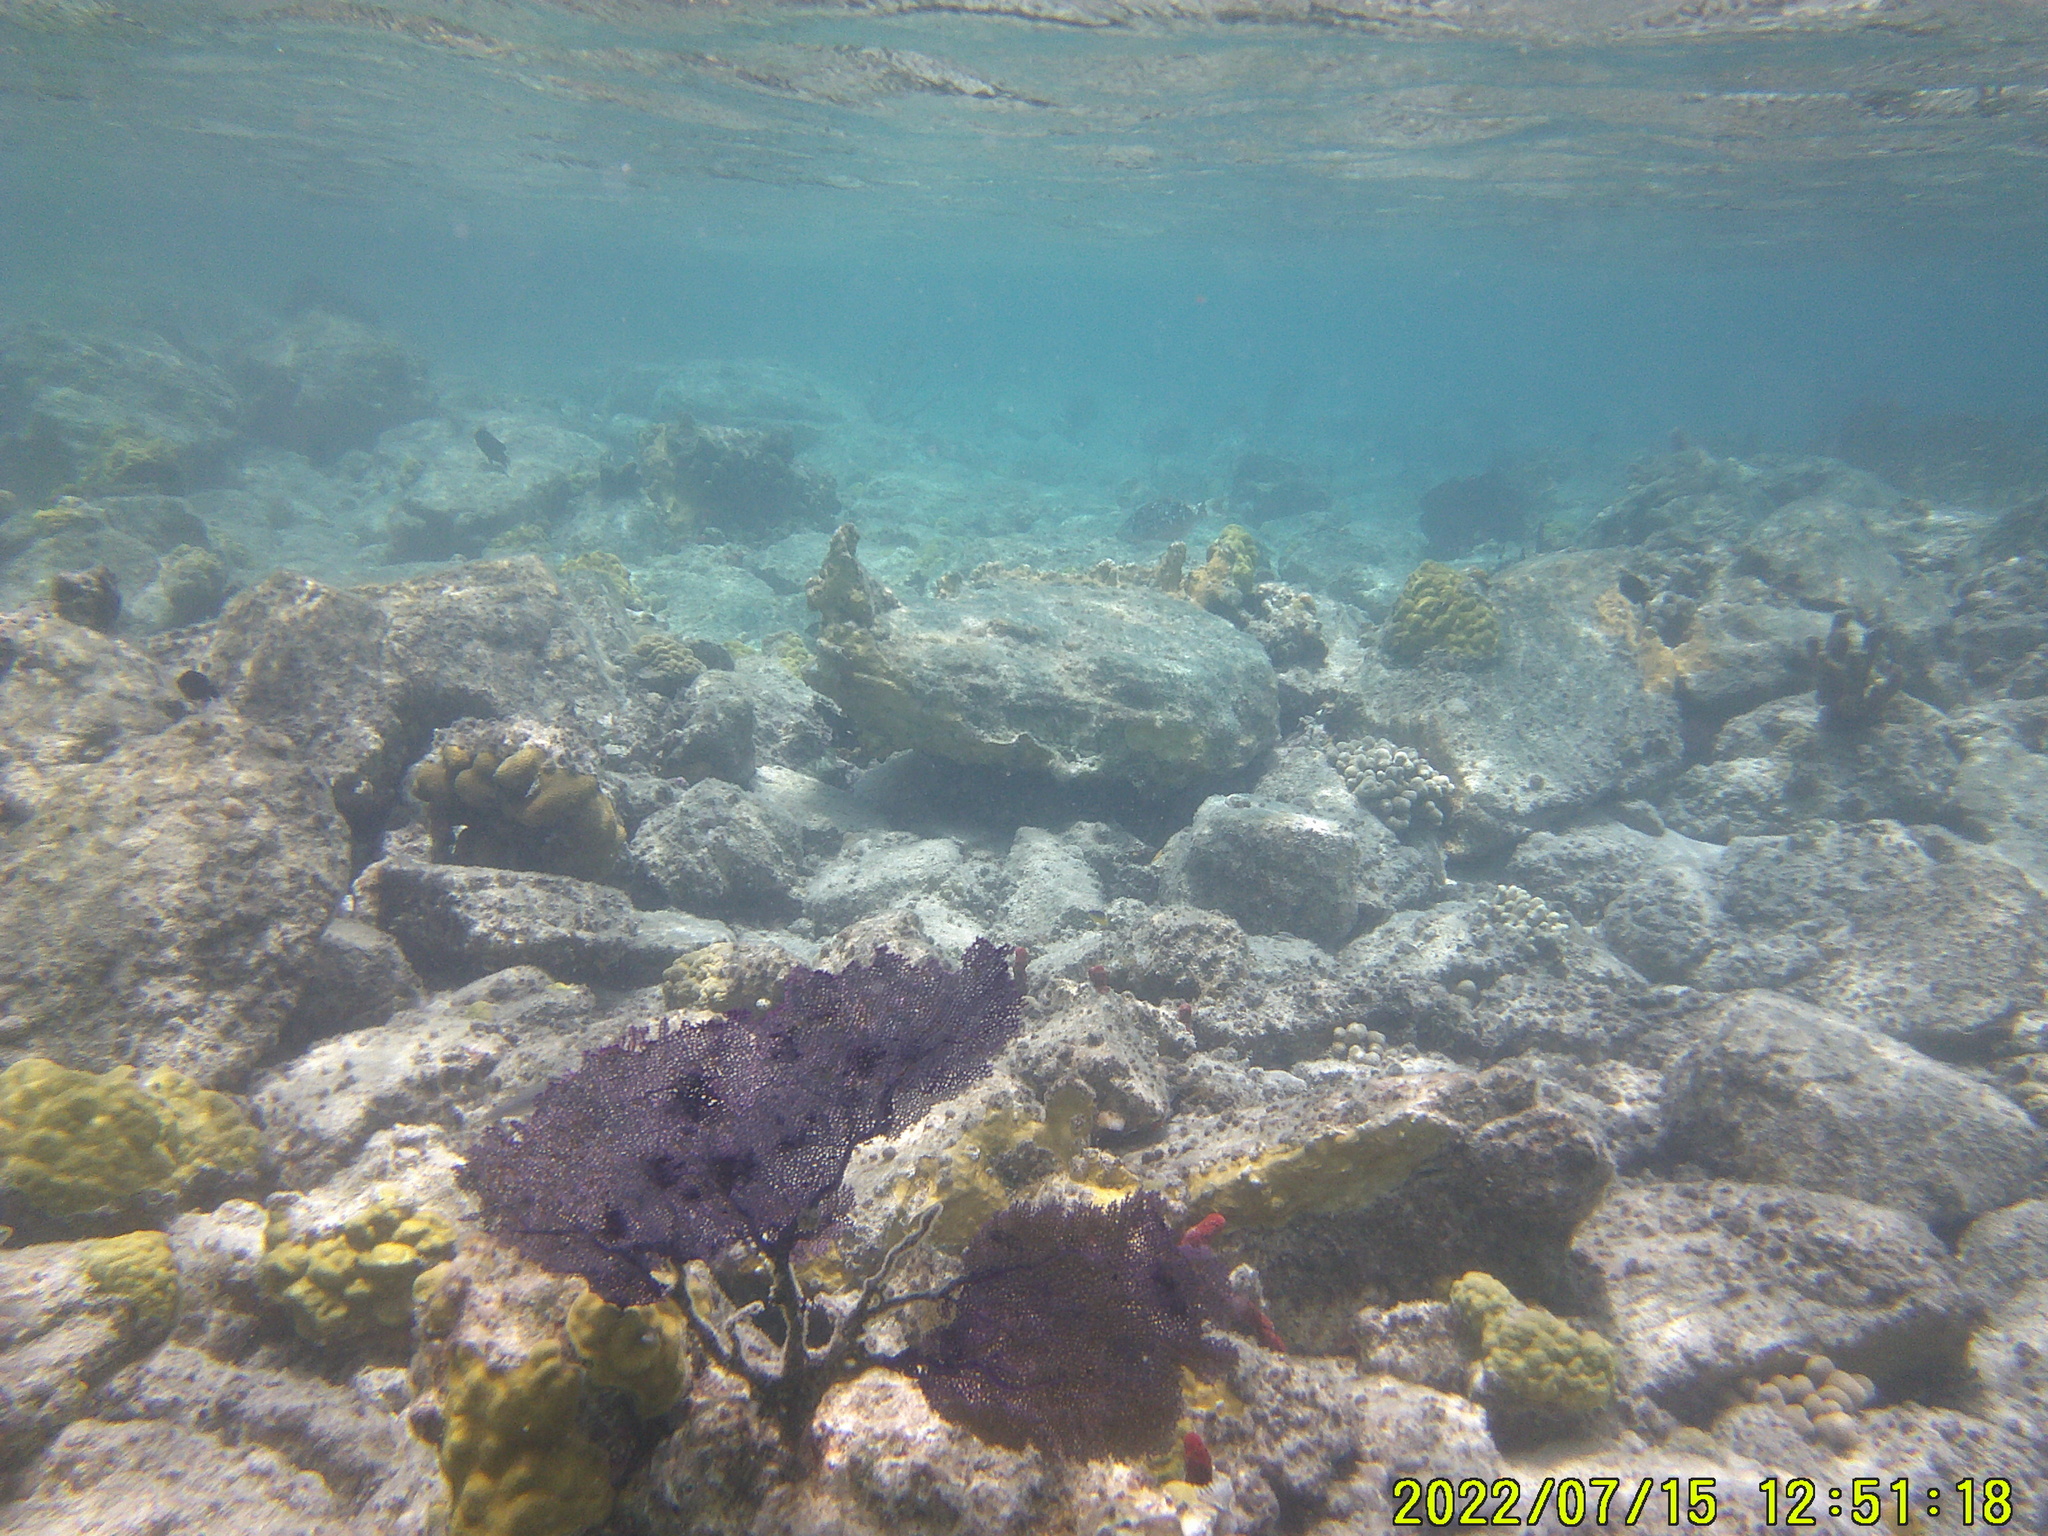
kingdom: Animalia
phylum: Cnidaria
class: Anthozoa
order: Malacalcyonacea
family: Gorgoniidae
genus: Gorgonia
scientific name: Gorgonia ventalina
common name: Common sea fan
